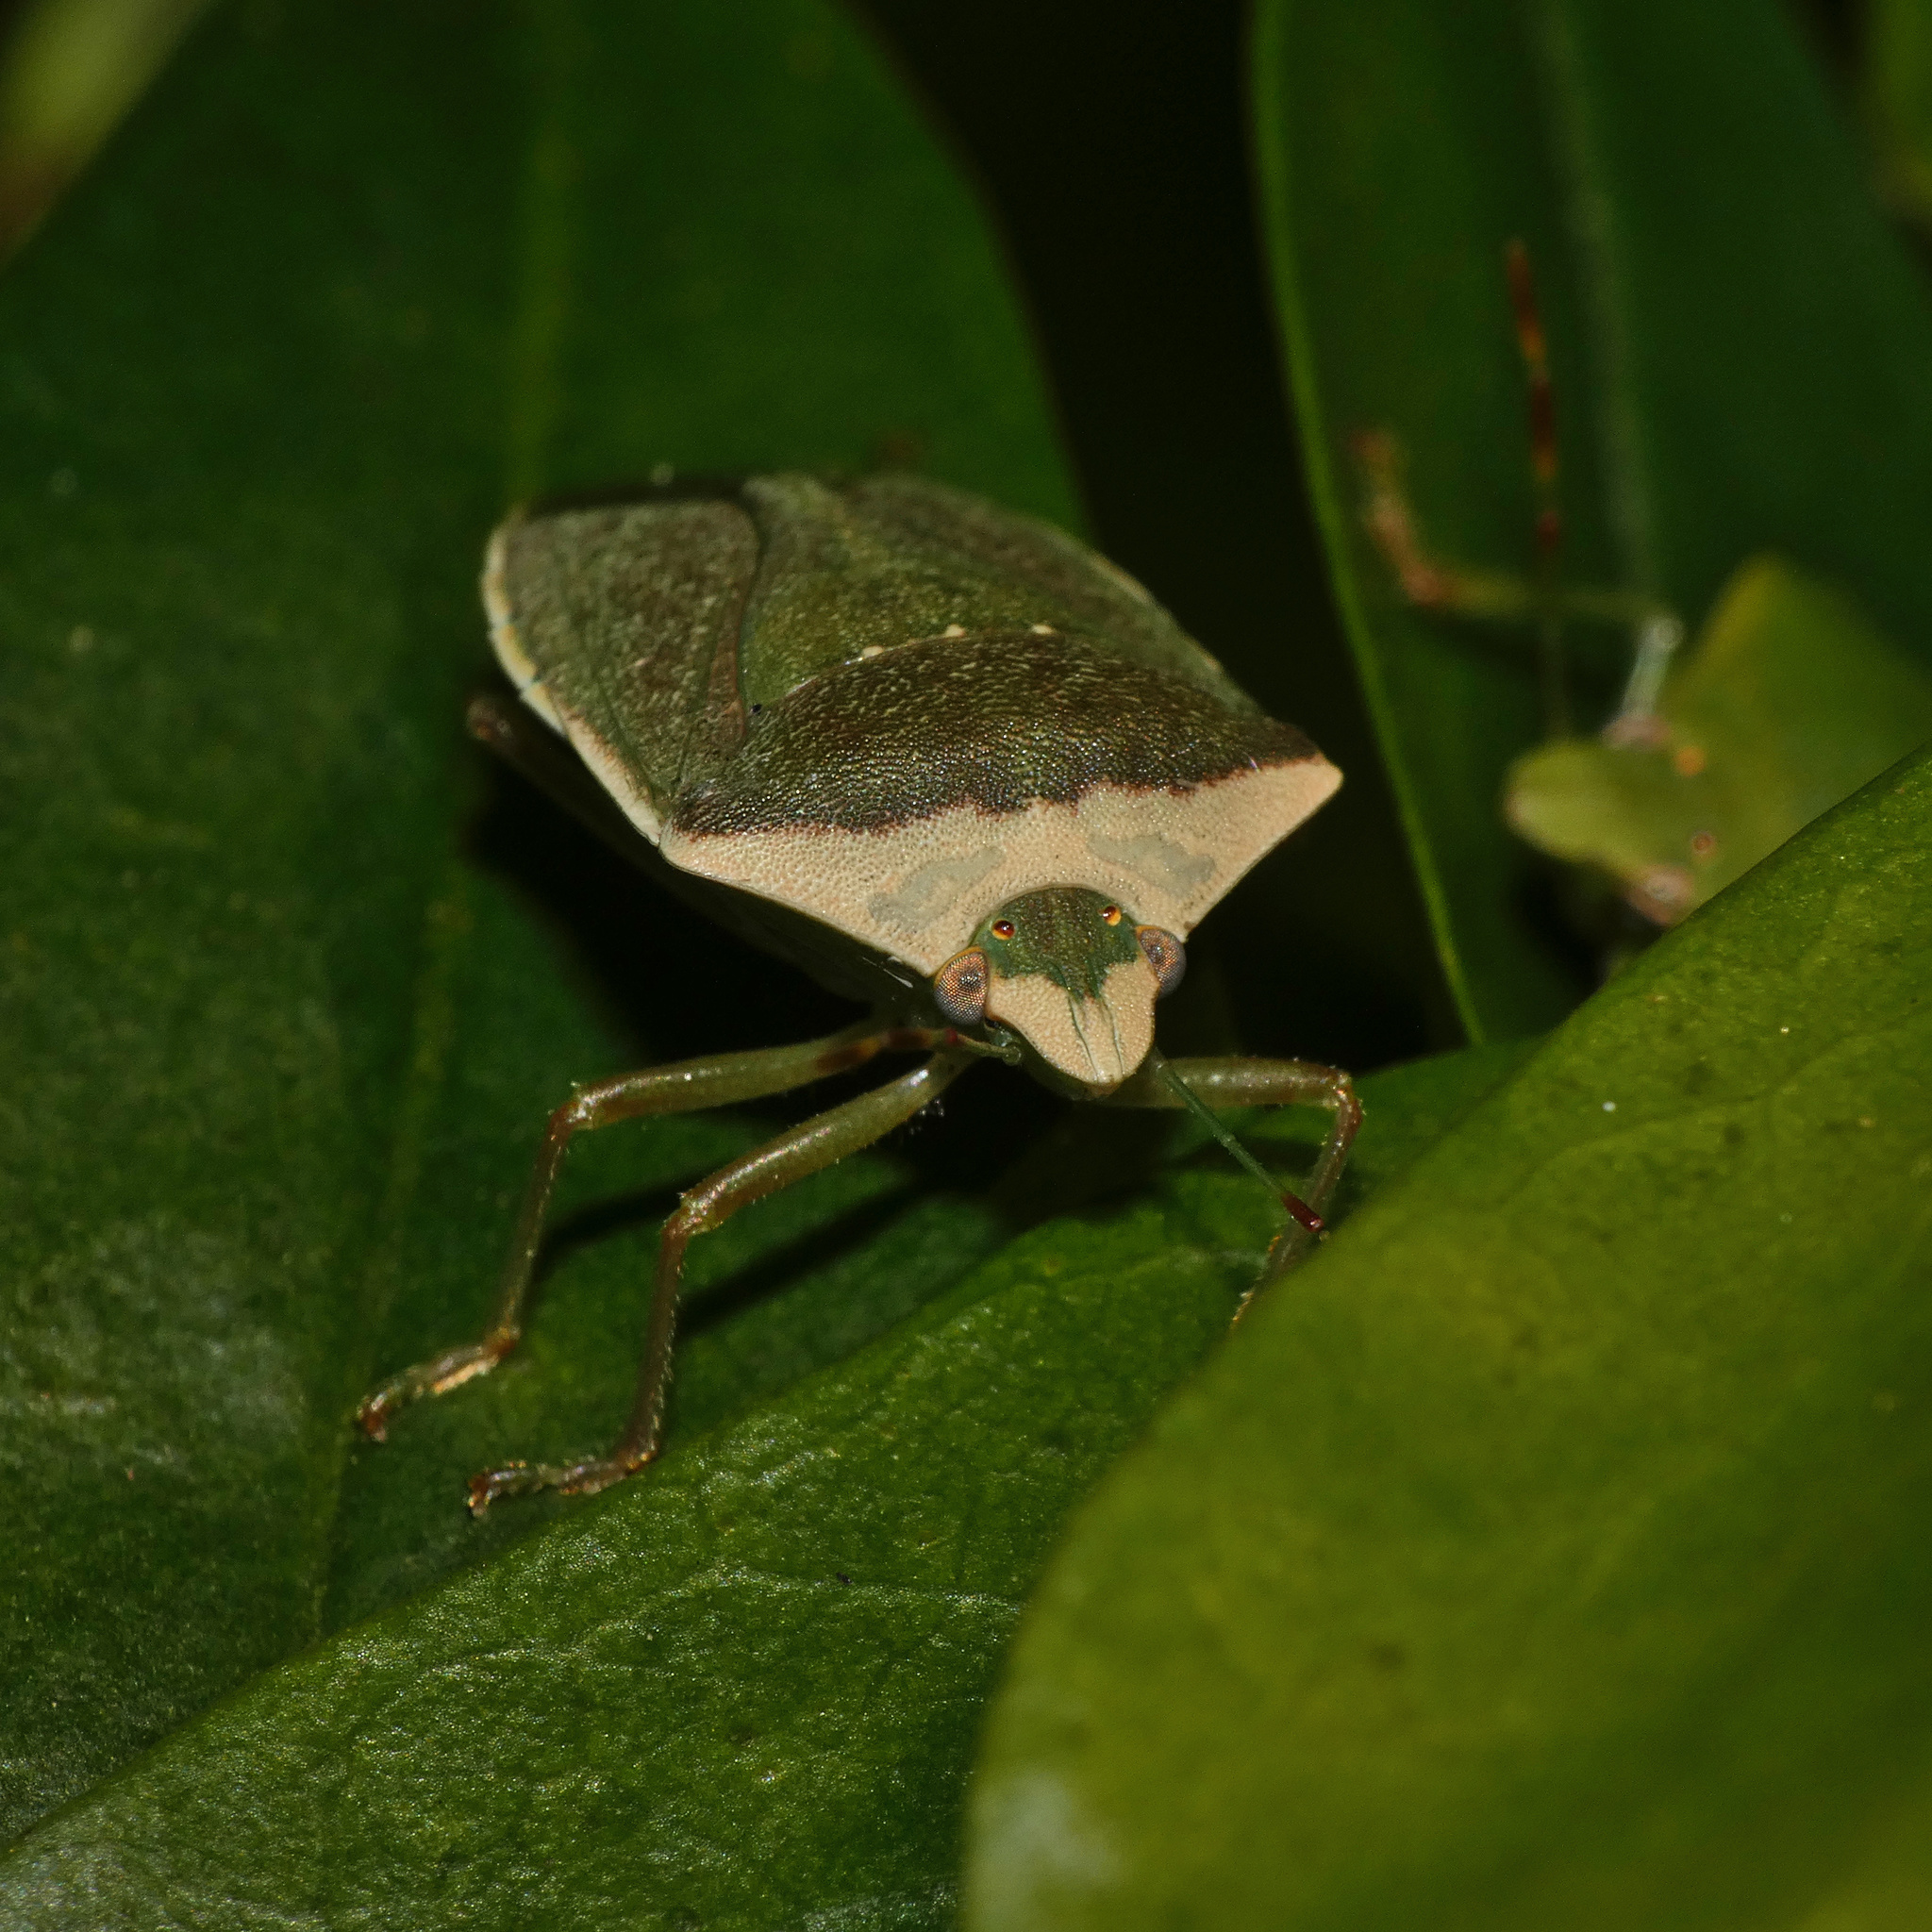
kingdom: Animalia
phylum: Arthropoda
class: Insecta
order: Hemiptera
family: Pentatomidae
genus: Nezara
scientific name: Nezara viridula
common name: Southern green stink bug
